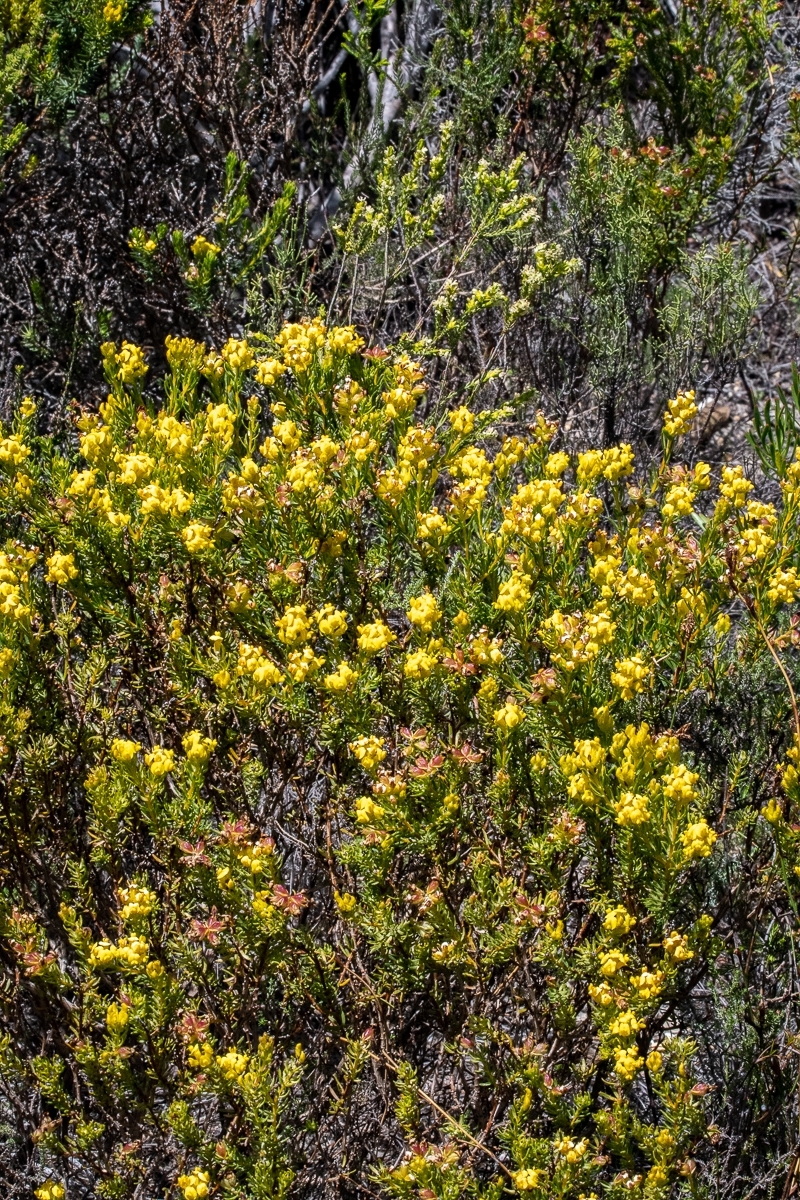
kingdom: Plantae
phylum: Tracheophyta
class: Magnoliopsida
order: Fabales
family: Fabaceae
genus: Aspalathus
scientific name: Aspalathus callosa
